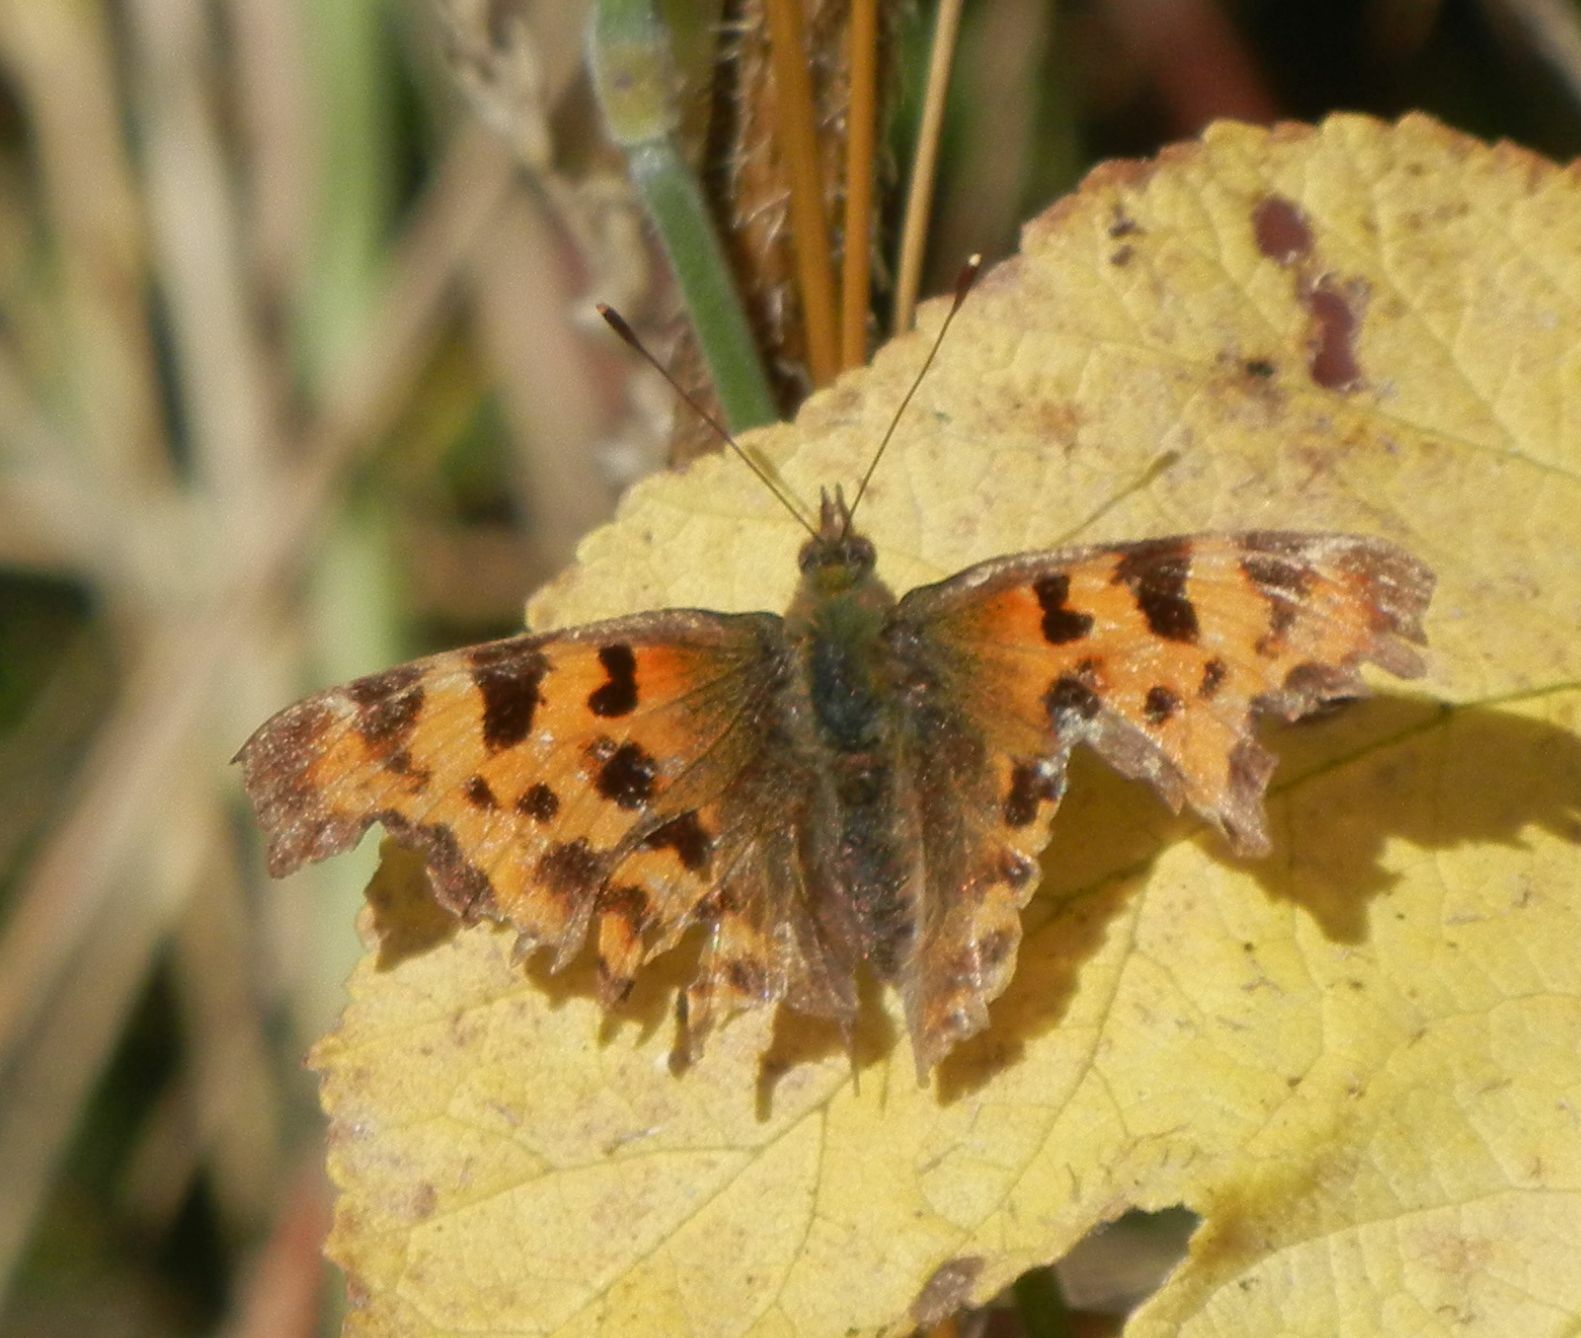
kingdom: Animalia
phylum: Arthropoda
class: Insecta
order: Lepidoptera
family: Nymphalidae
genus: Polygonia
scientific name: Polygonia c-album
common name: Comma
